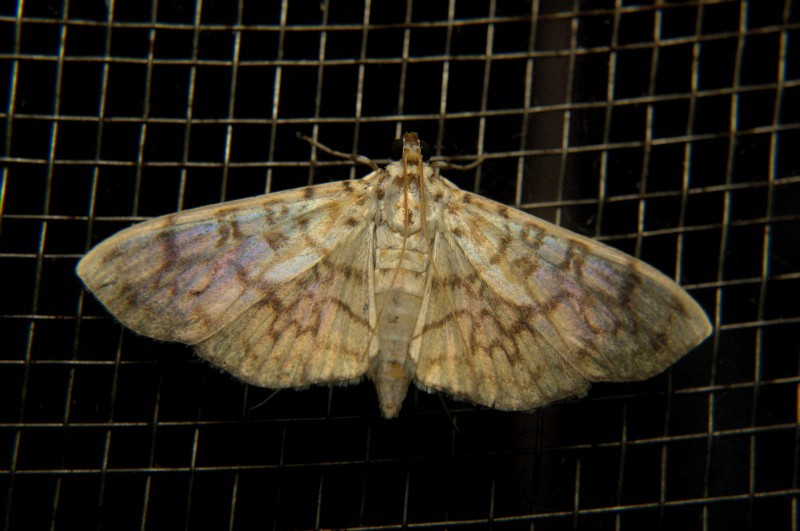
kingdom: Animalia
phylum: Arthropoda
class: Insecta
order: Lepidoptera
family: Crambidae
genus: Haritalodes
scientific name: Haritalodes derogata
